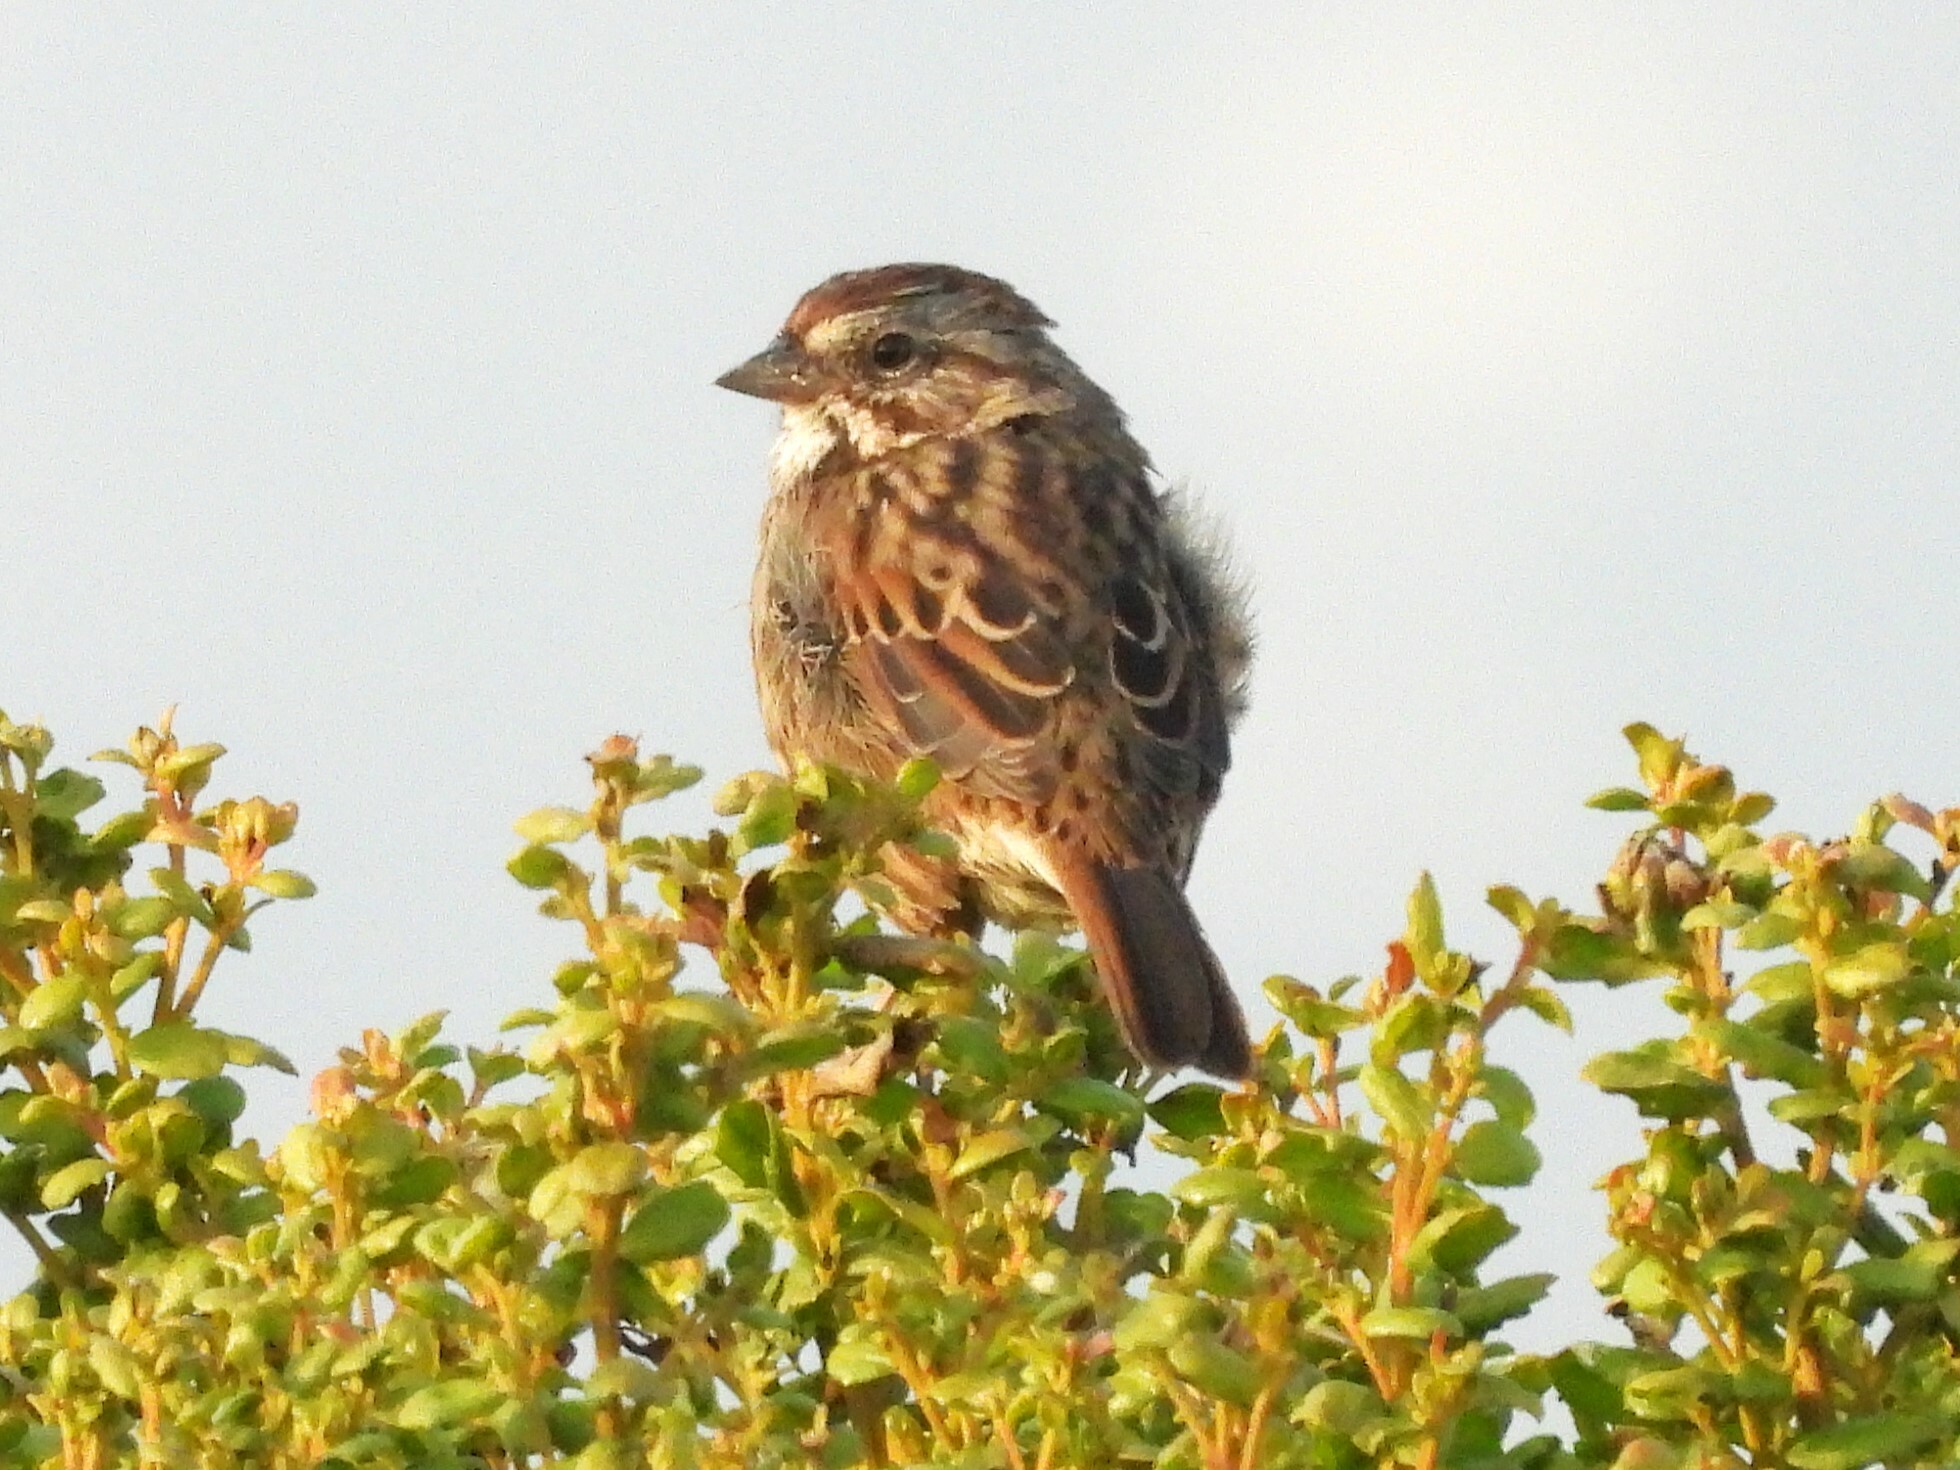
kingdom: Animalia
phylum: Chordata
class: Aves
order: Passeriformes
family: Passerellidae
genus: Melospiza
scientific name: Melospiza melodia
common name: Song sparrow
